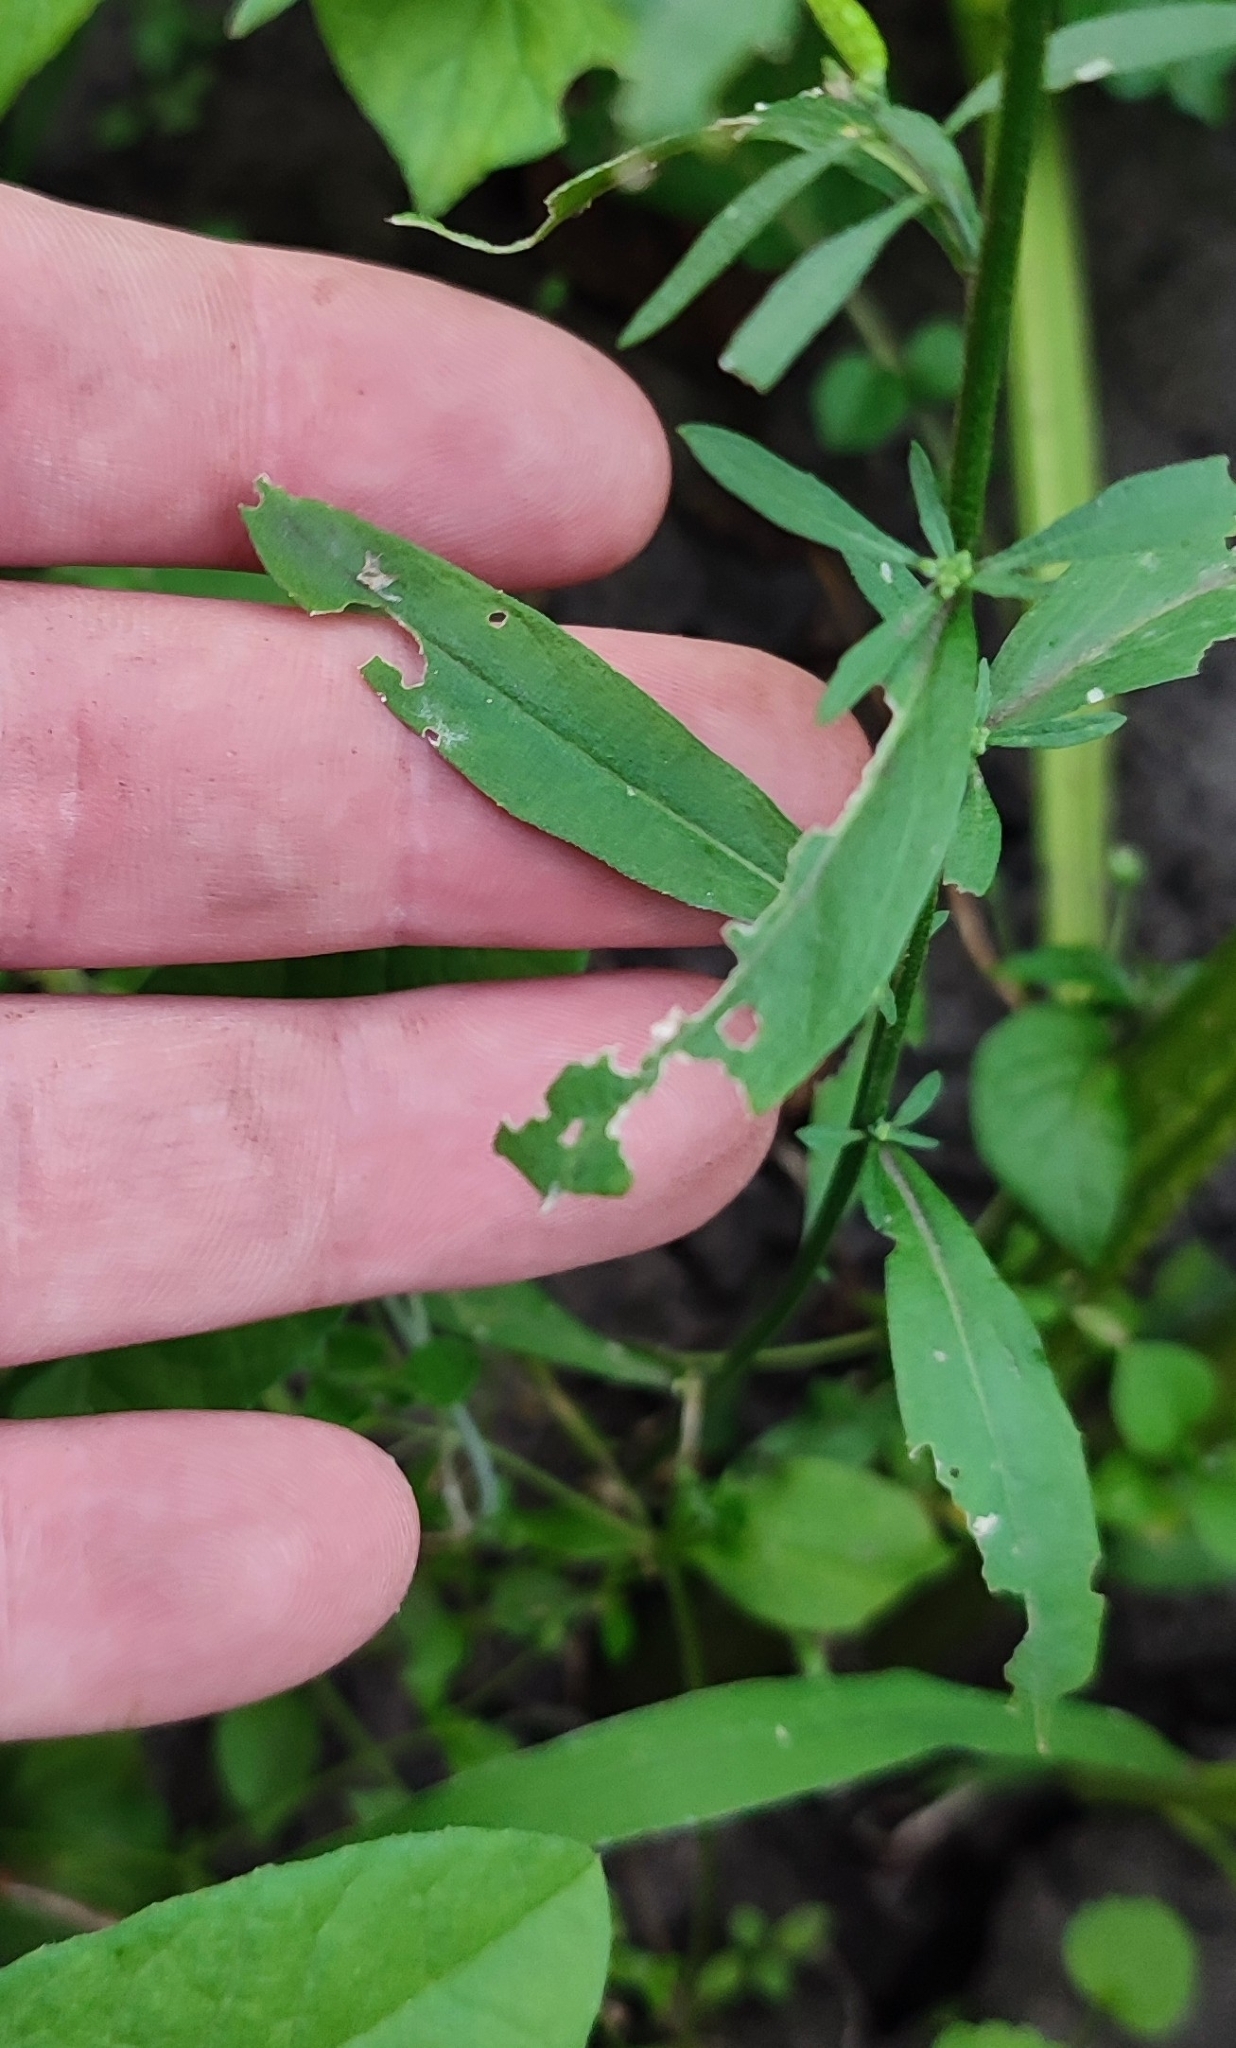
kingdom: Plantae
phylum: Tracheophyta
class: Magnoliopsida
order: Brassicales
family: Brassicaceae
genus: Erysimum
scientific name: Erysimum cheiranthoides
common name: Treacle mustard
